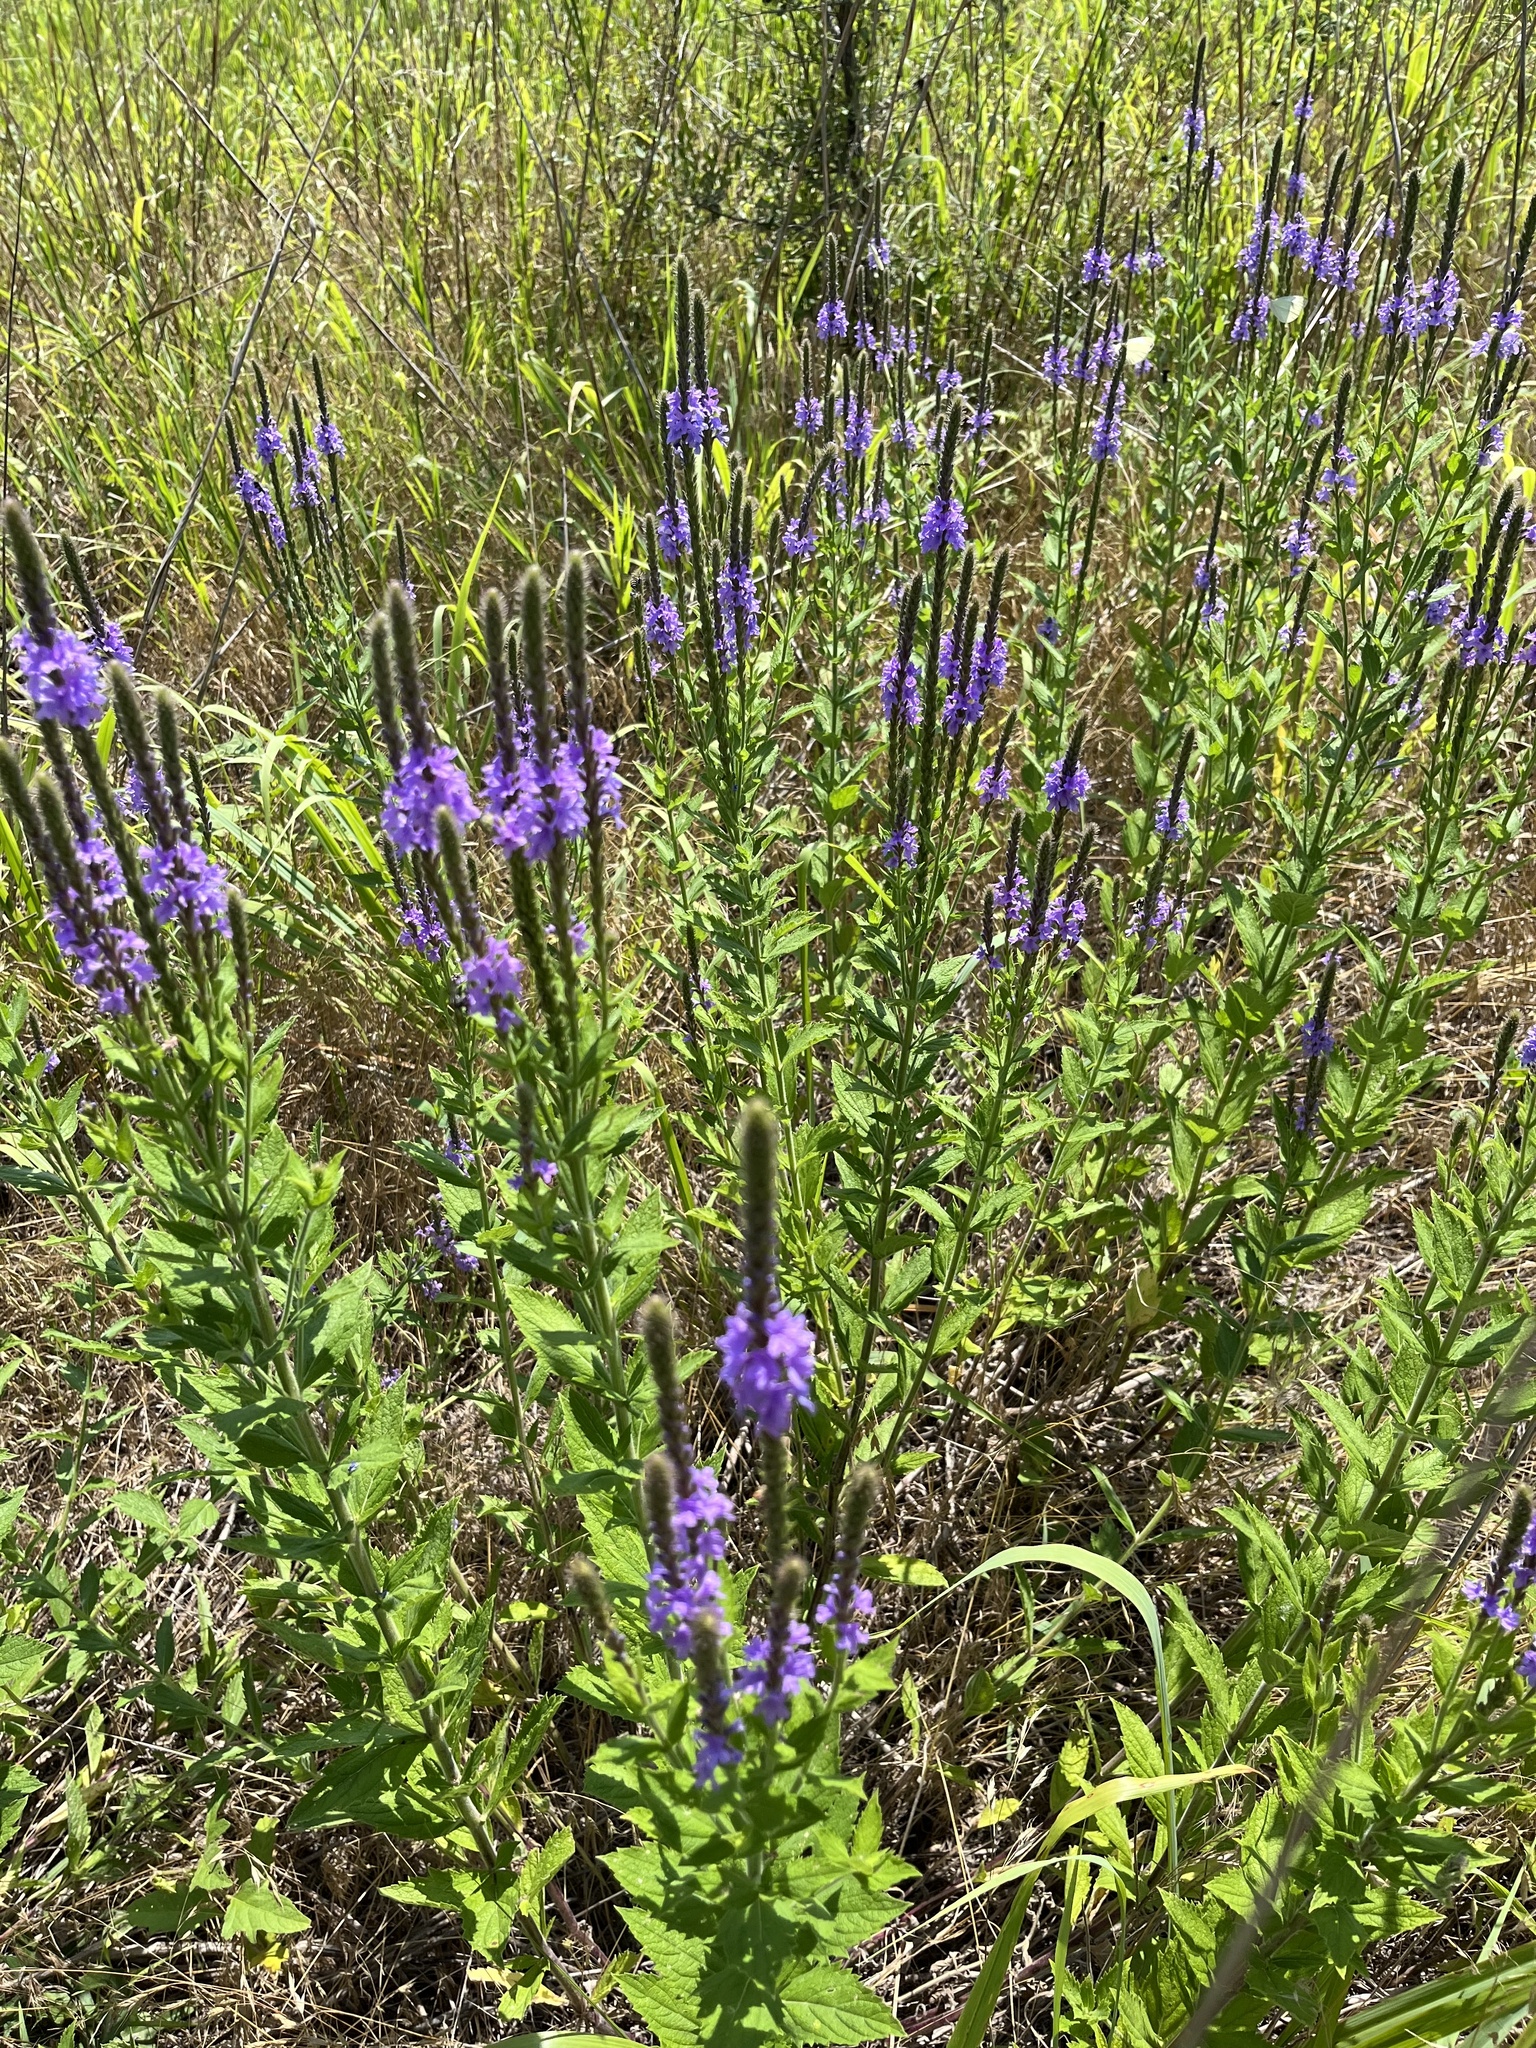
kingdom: Plantae
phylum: Tracheophyta
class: Magnoliopsida
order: Lamiales
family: Verbenaceae
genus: Verbena
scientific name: Verbena stricta
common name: Hoary vervain
